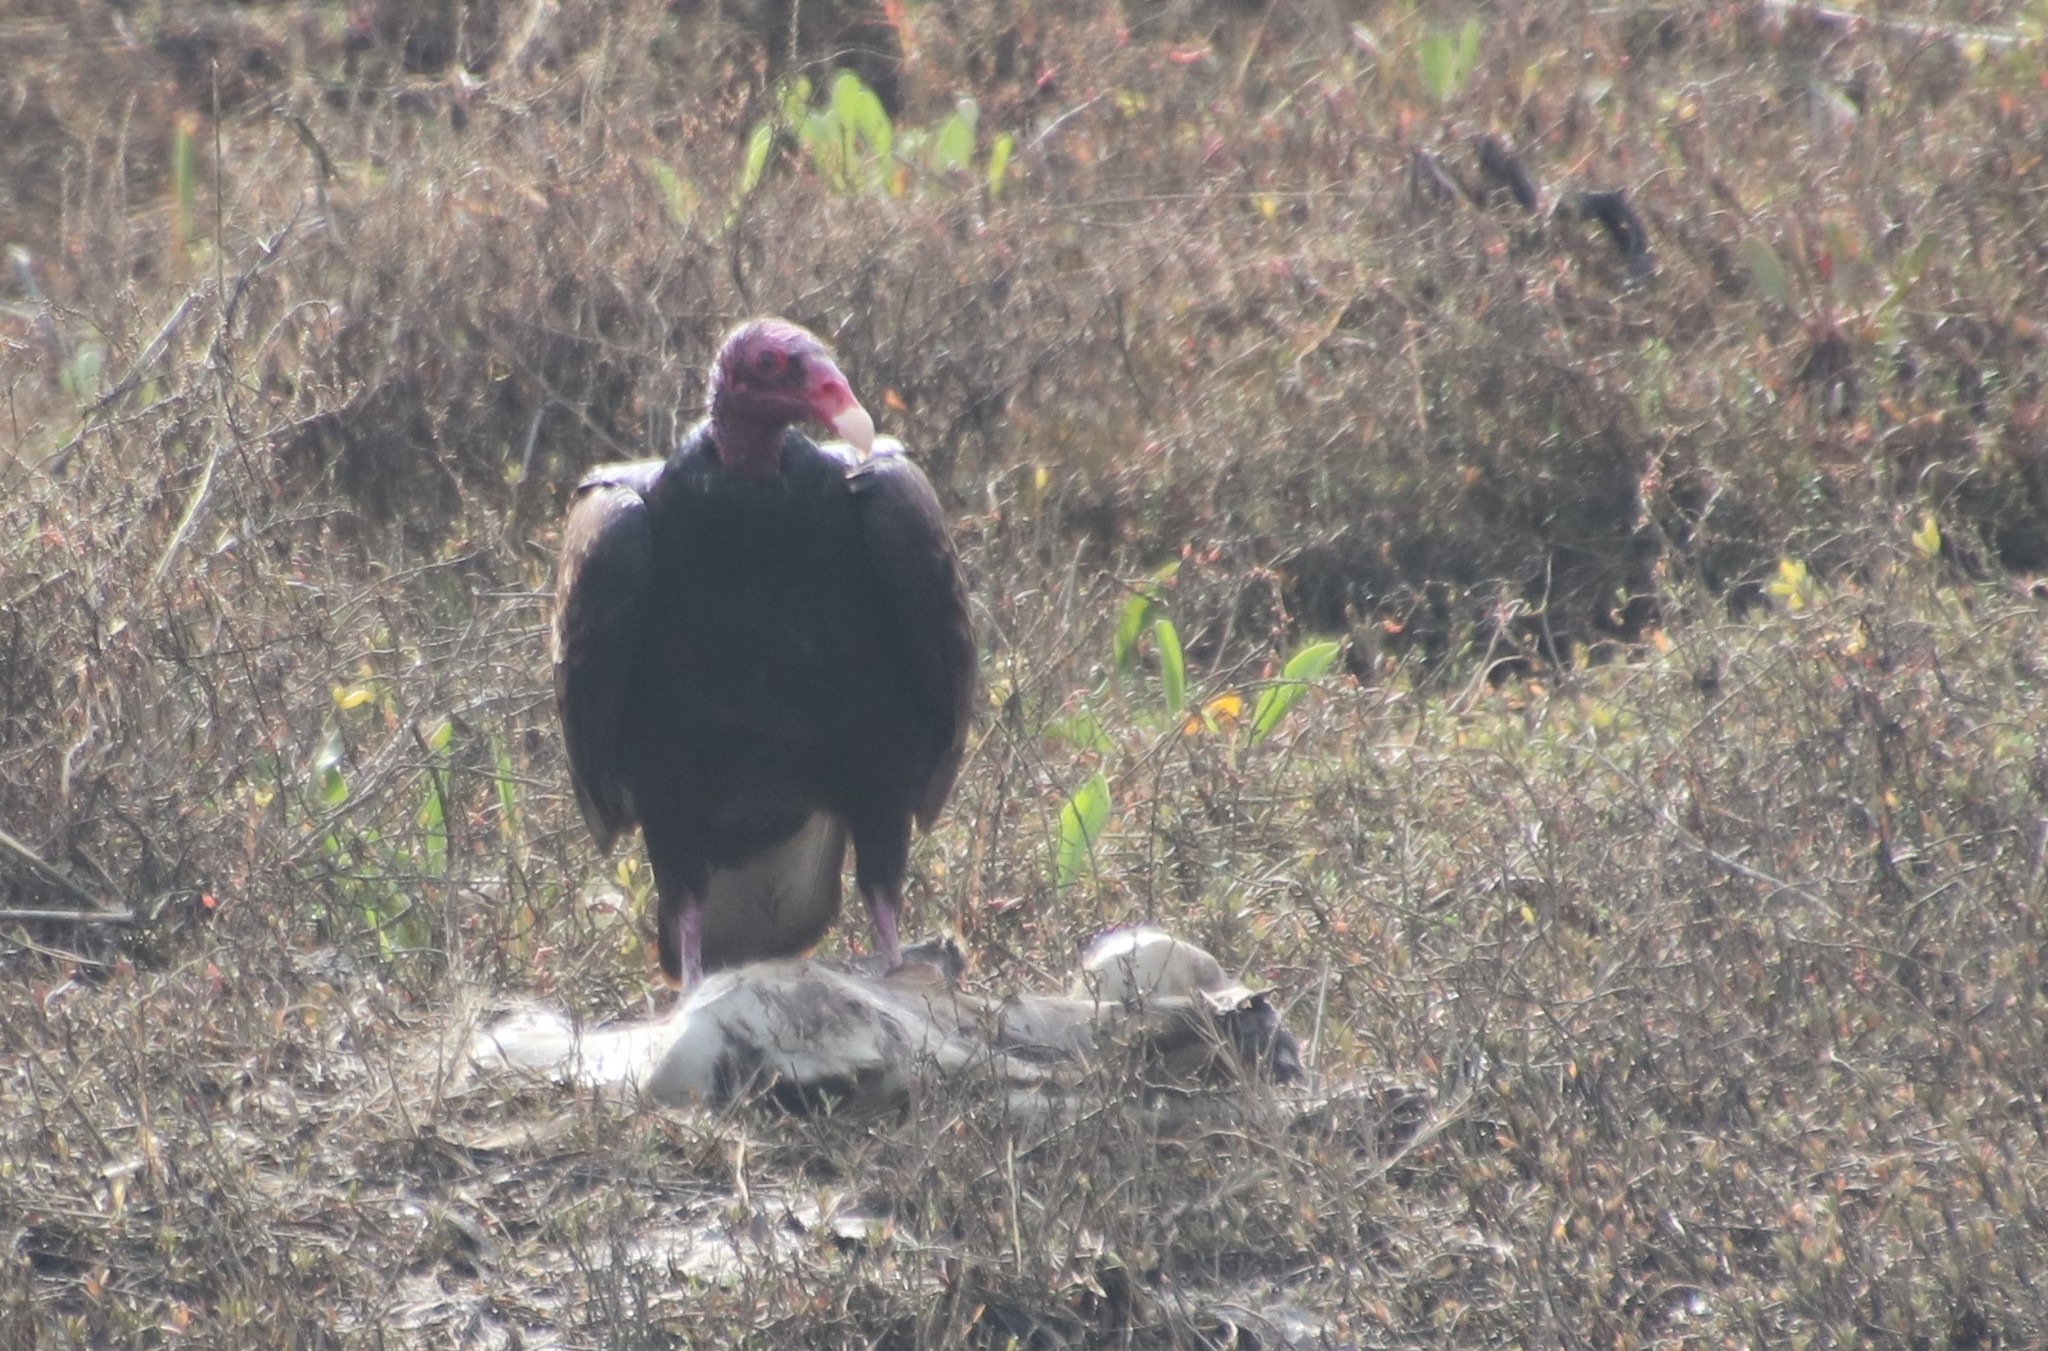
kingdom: Animalia
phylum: Chordata
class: Aves
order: Accipitriformes
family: Cathartidae
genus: Cathartes
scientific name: Cathartes aura
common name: Turkey vulture
